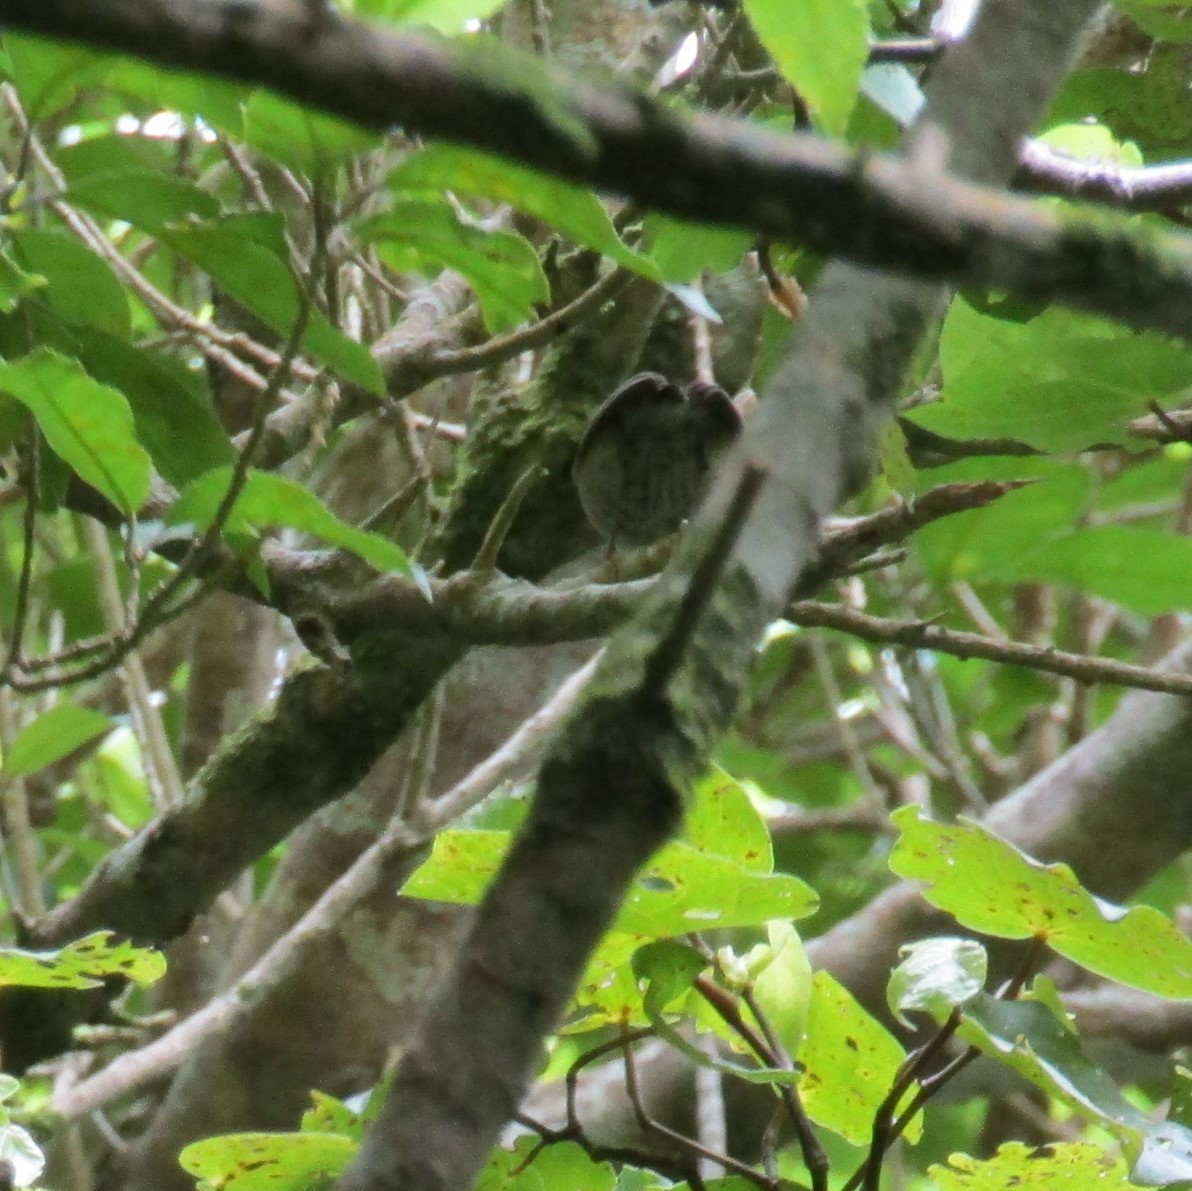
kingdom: Animalia
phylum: Chordata
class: Aves
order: Passeriformes
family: Acanthisittidae
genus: Acanthisitta
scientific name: Acanthisitta chloris
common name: Rifleman
